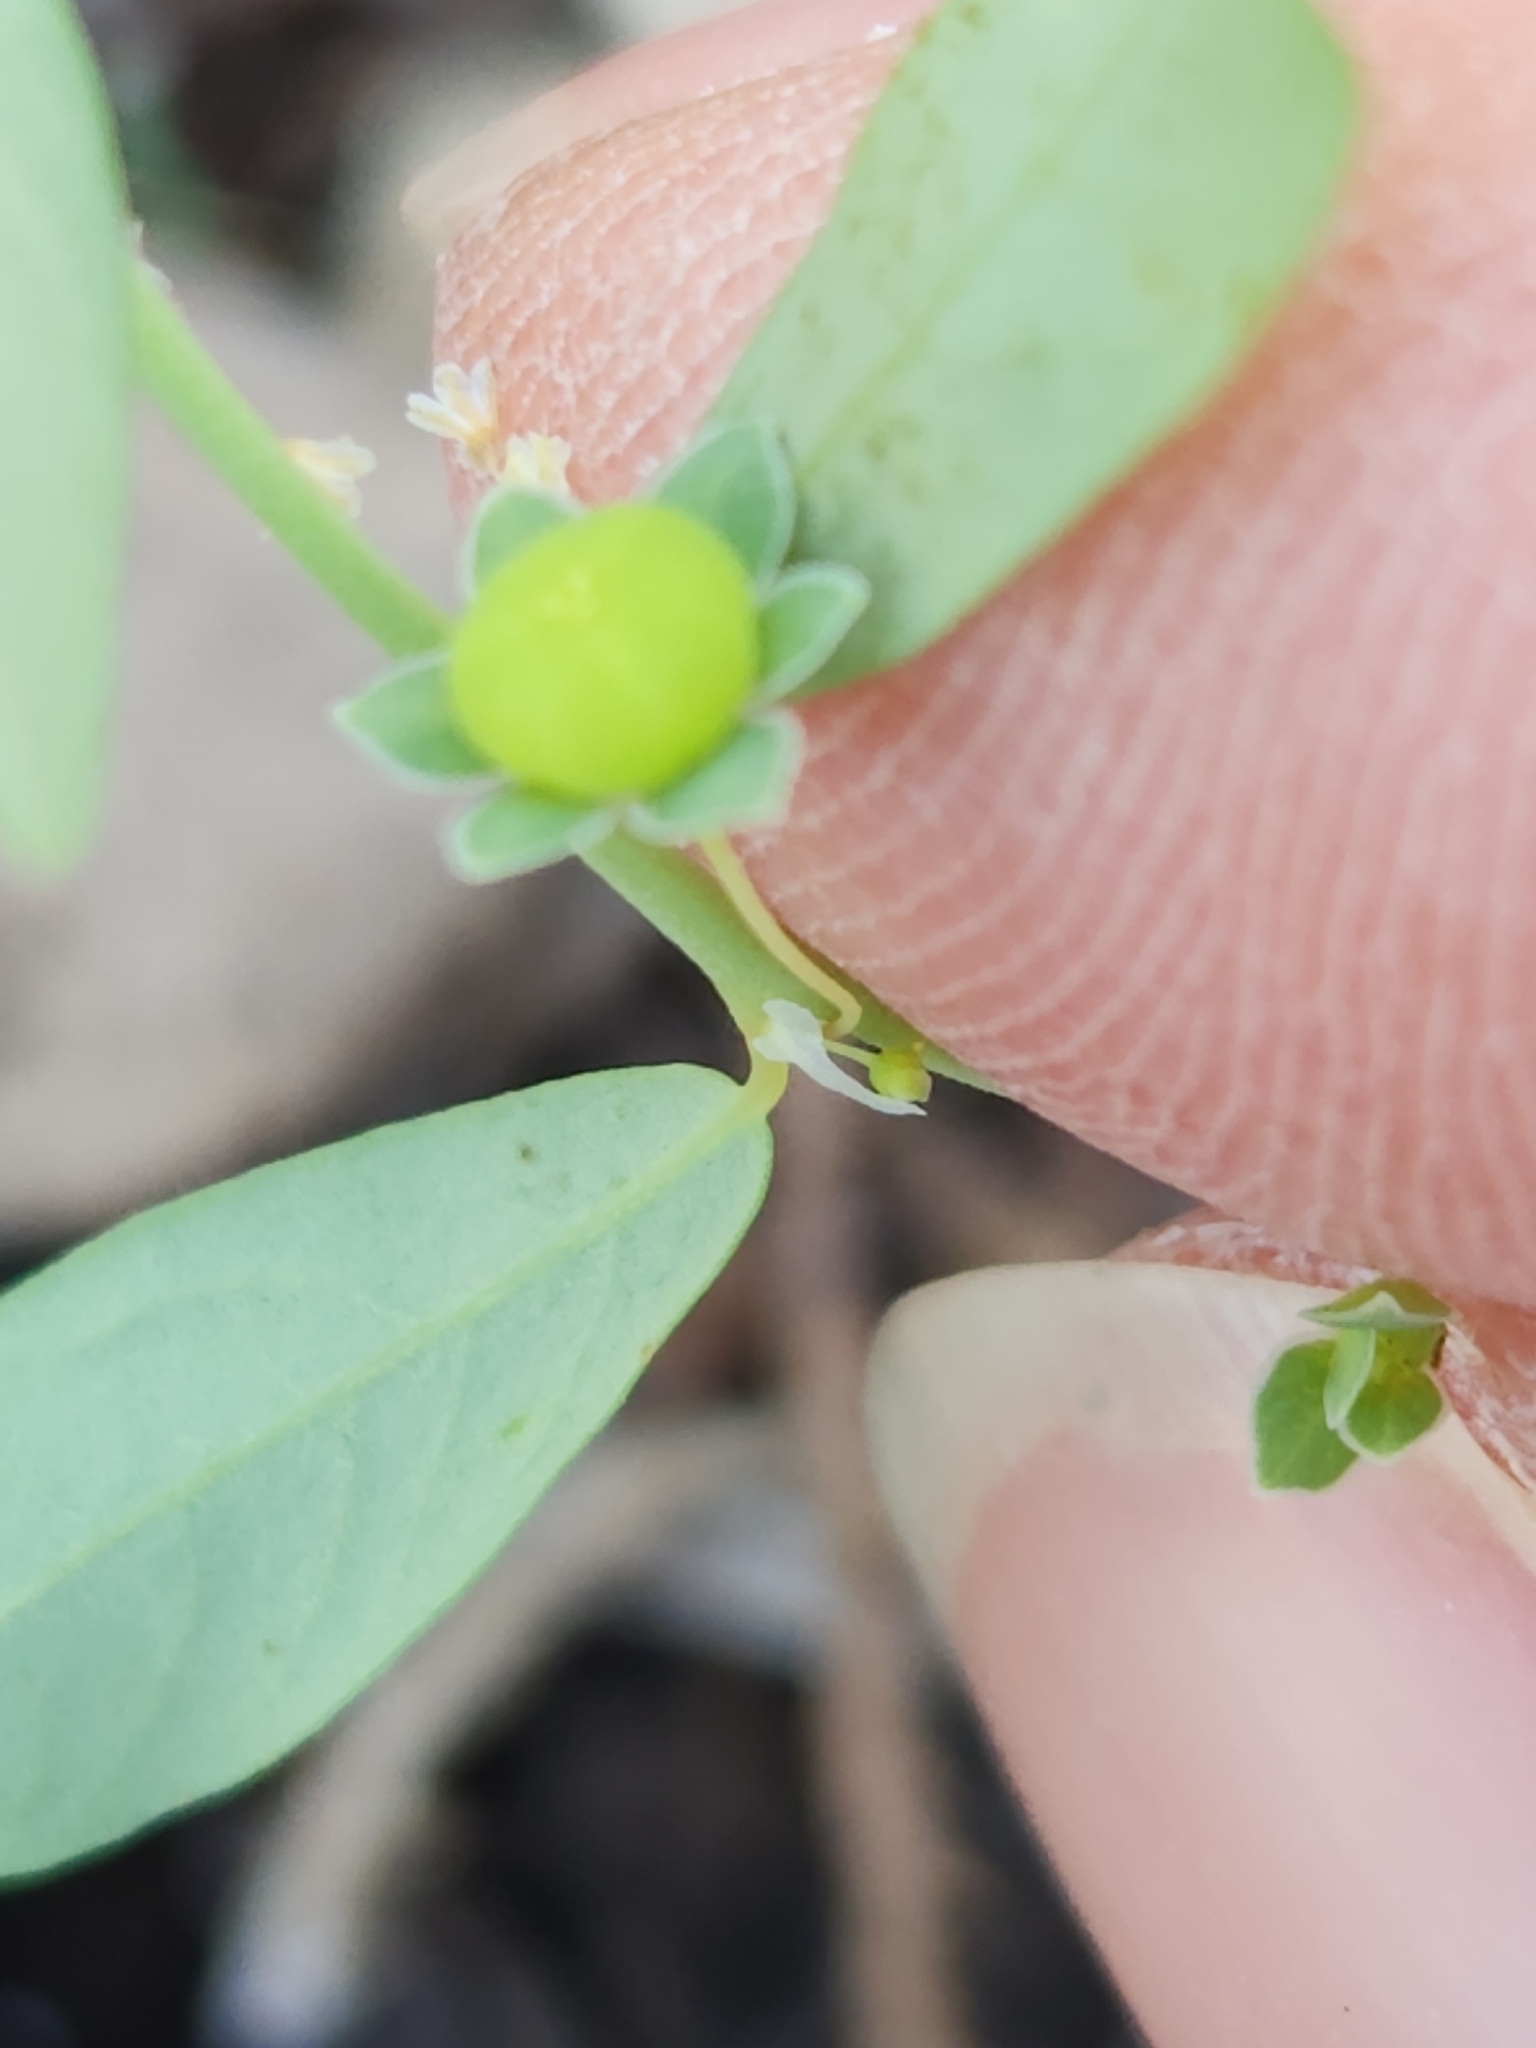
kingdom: Plantae
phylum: Tracheophyta
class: Magnoliopsida
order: Malpighiales
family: Phyllanthaceae
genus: Phyllanthus
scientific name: Phyllanthus polygonoides
